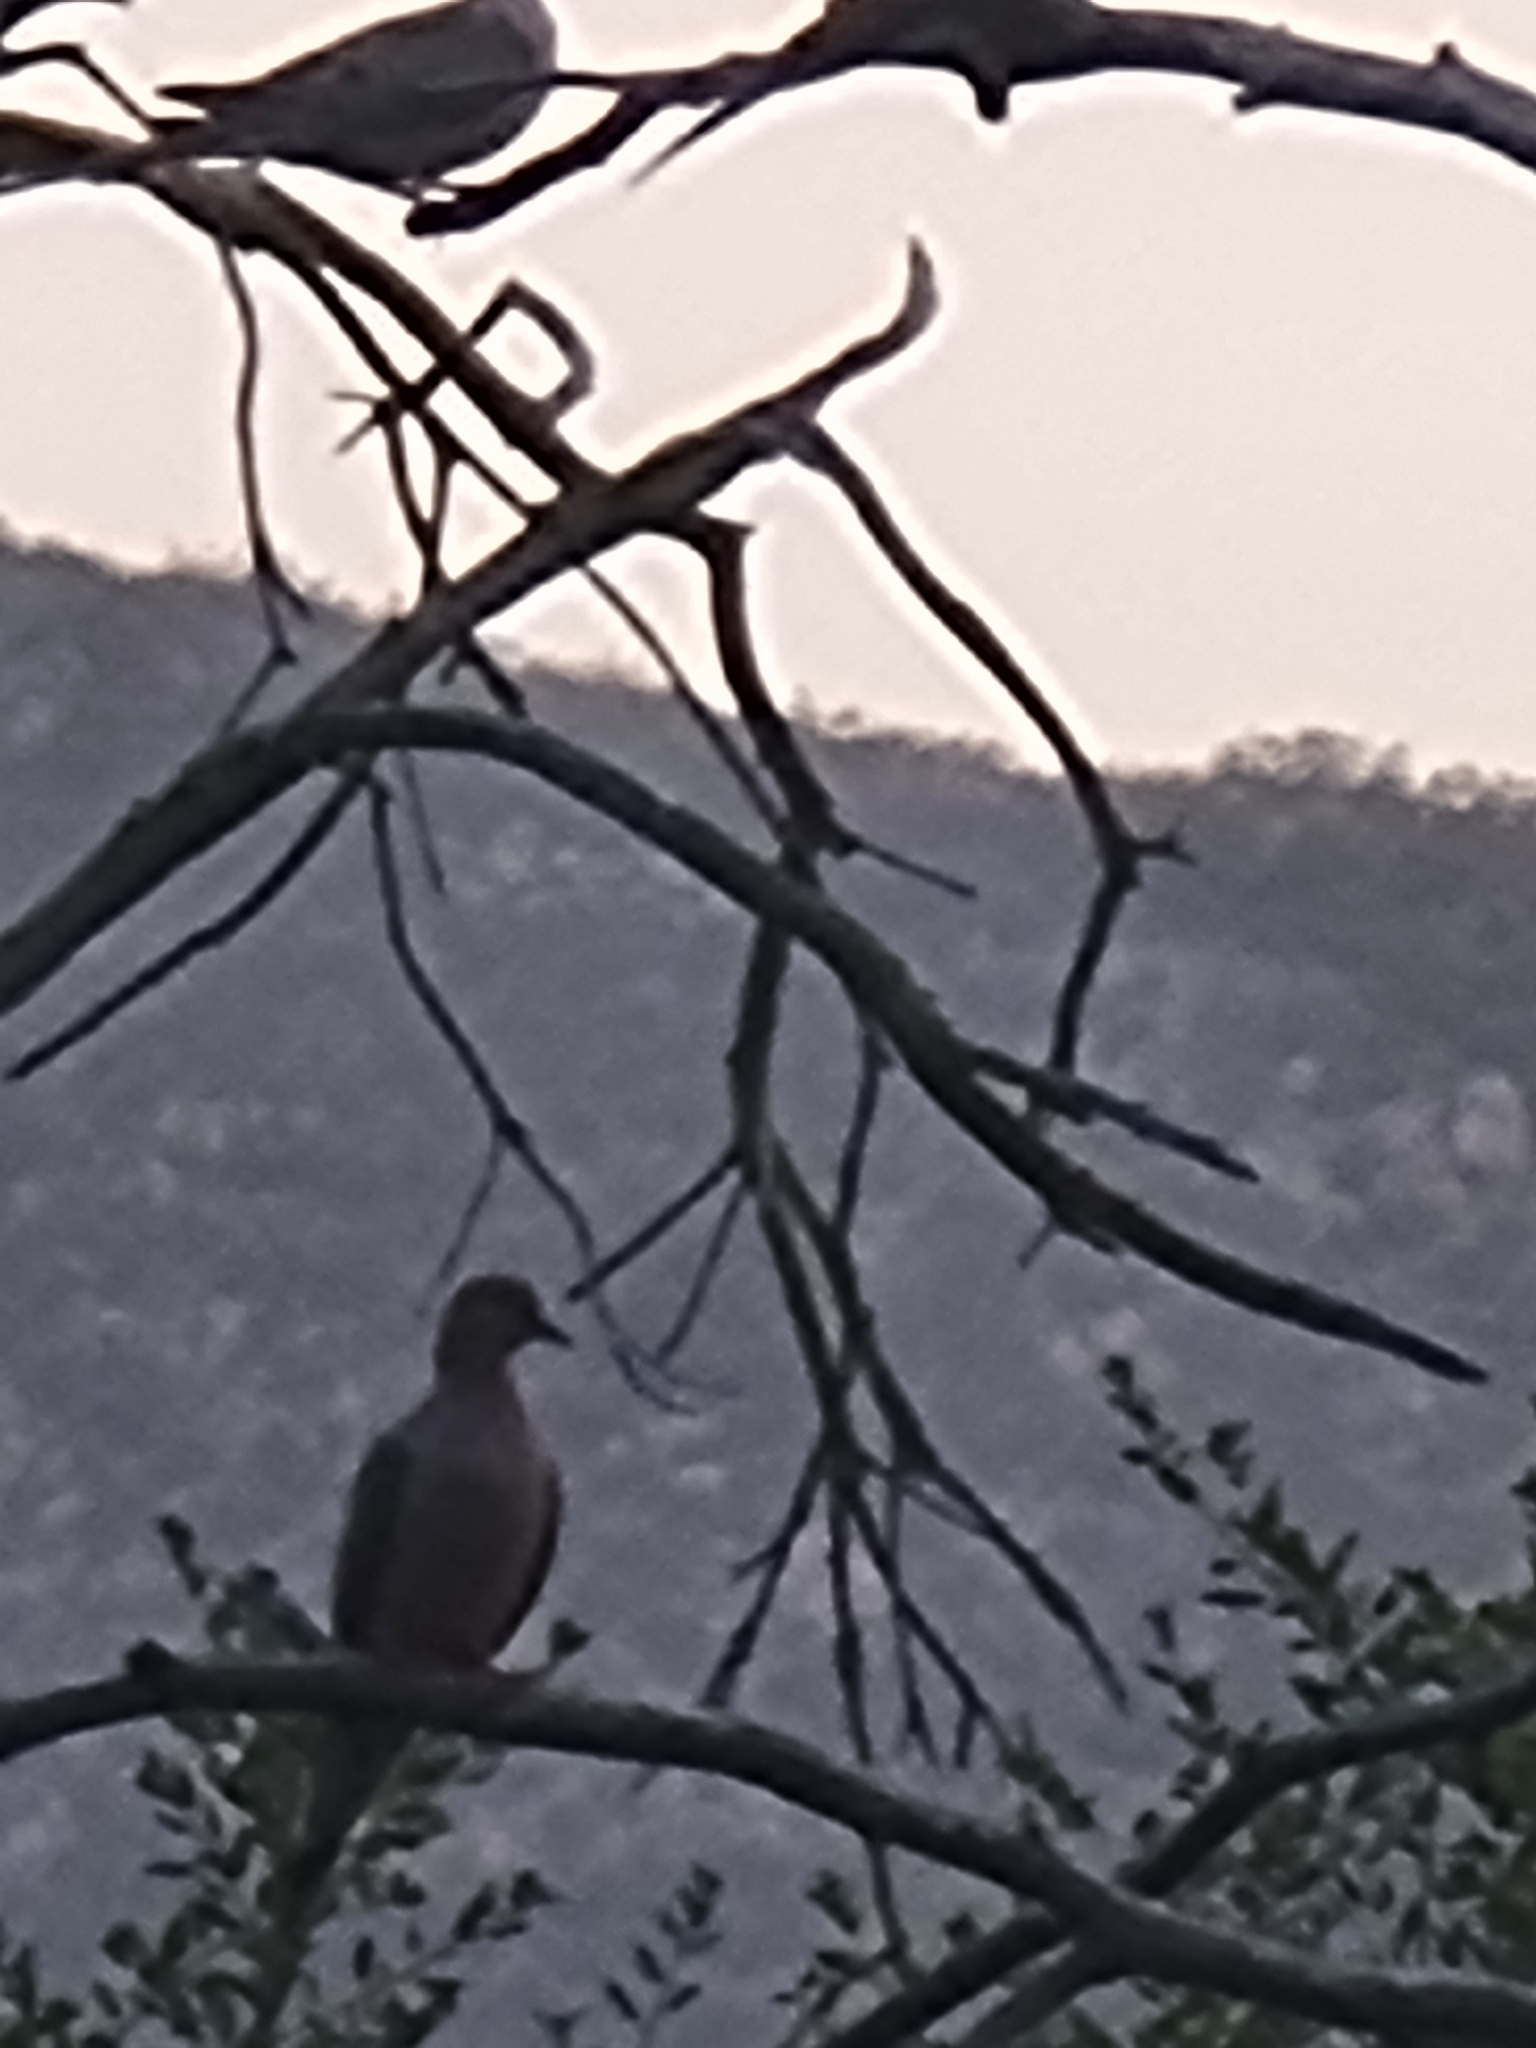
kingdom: Animalia
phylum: Chordata
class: Aves
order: Columbiformes
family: Columbidae
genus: Zenaida
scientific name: Zenaida macroura
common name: Mourning dove
